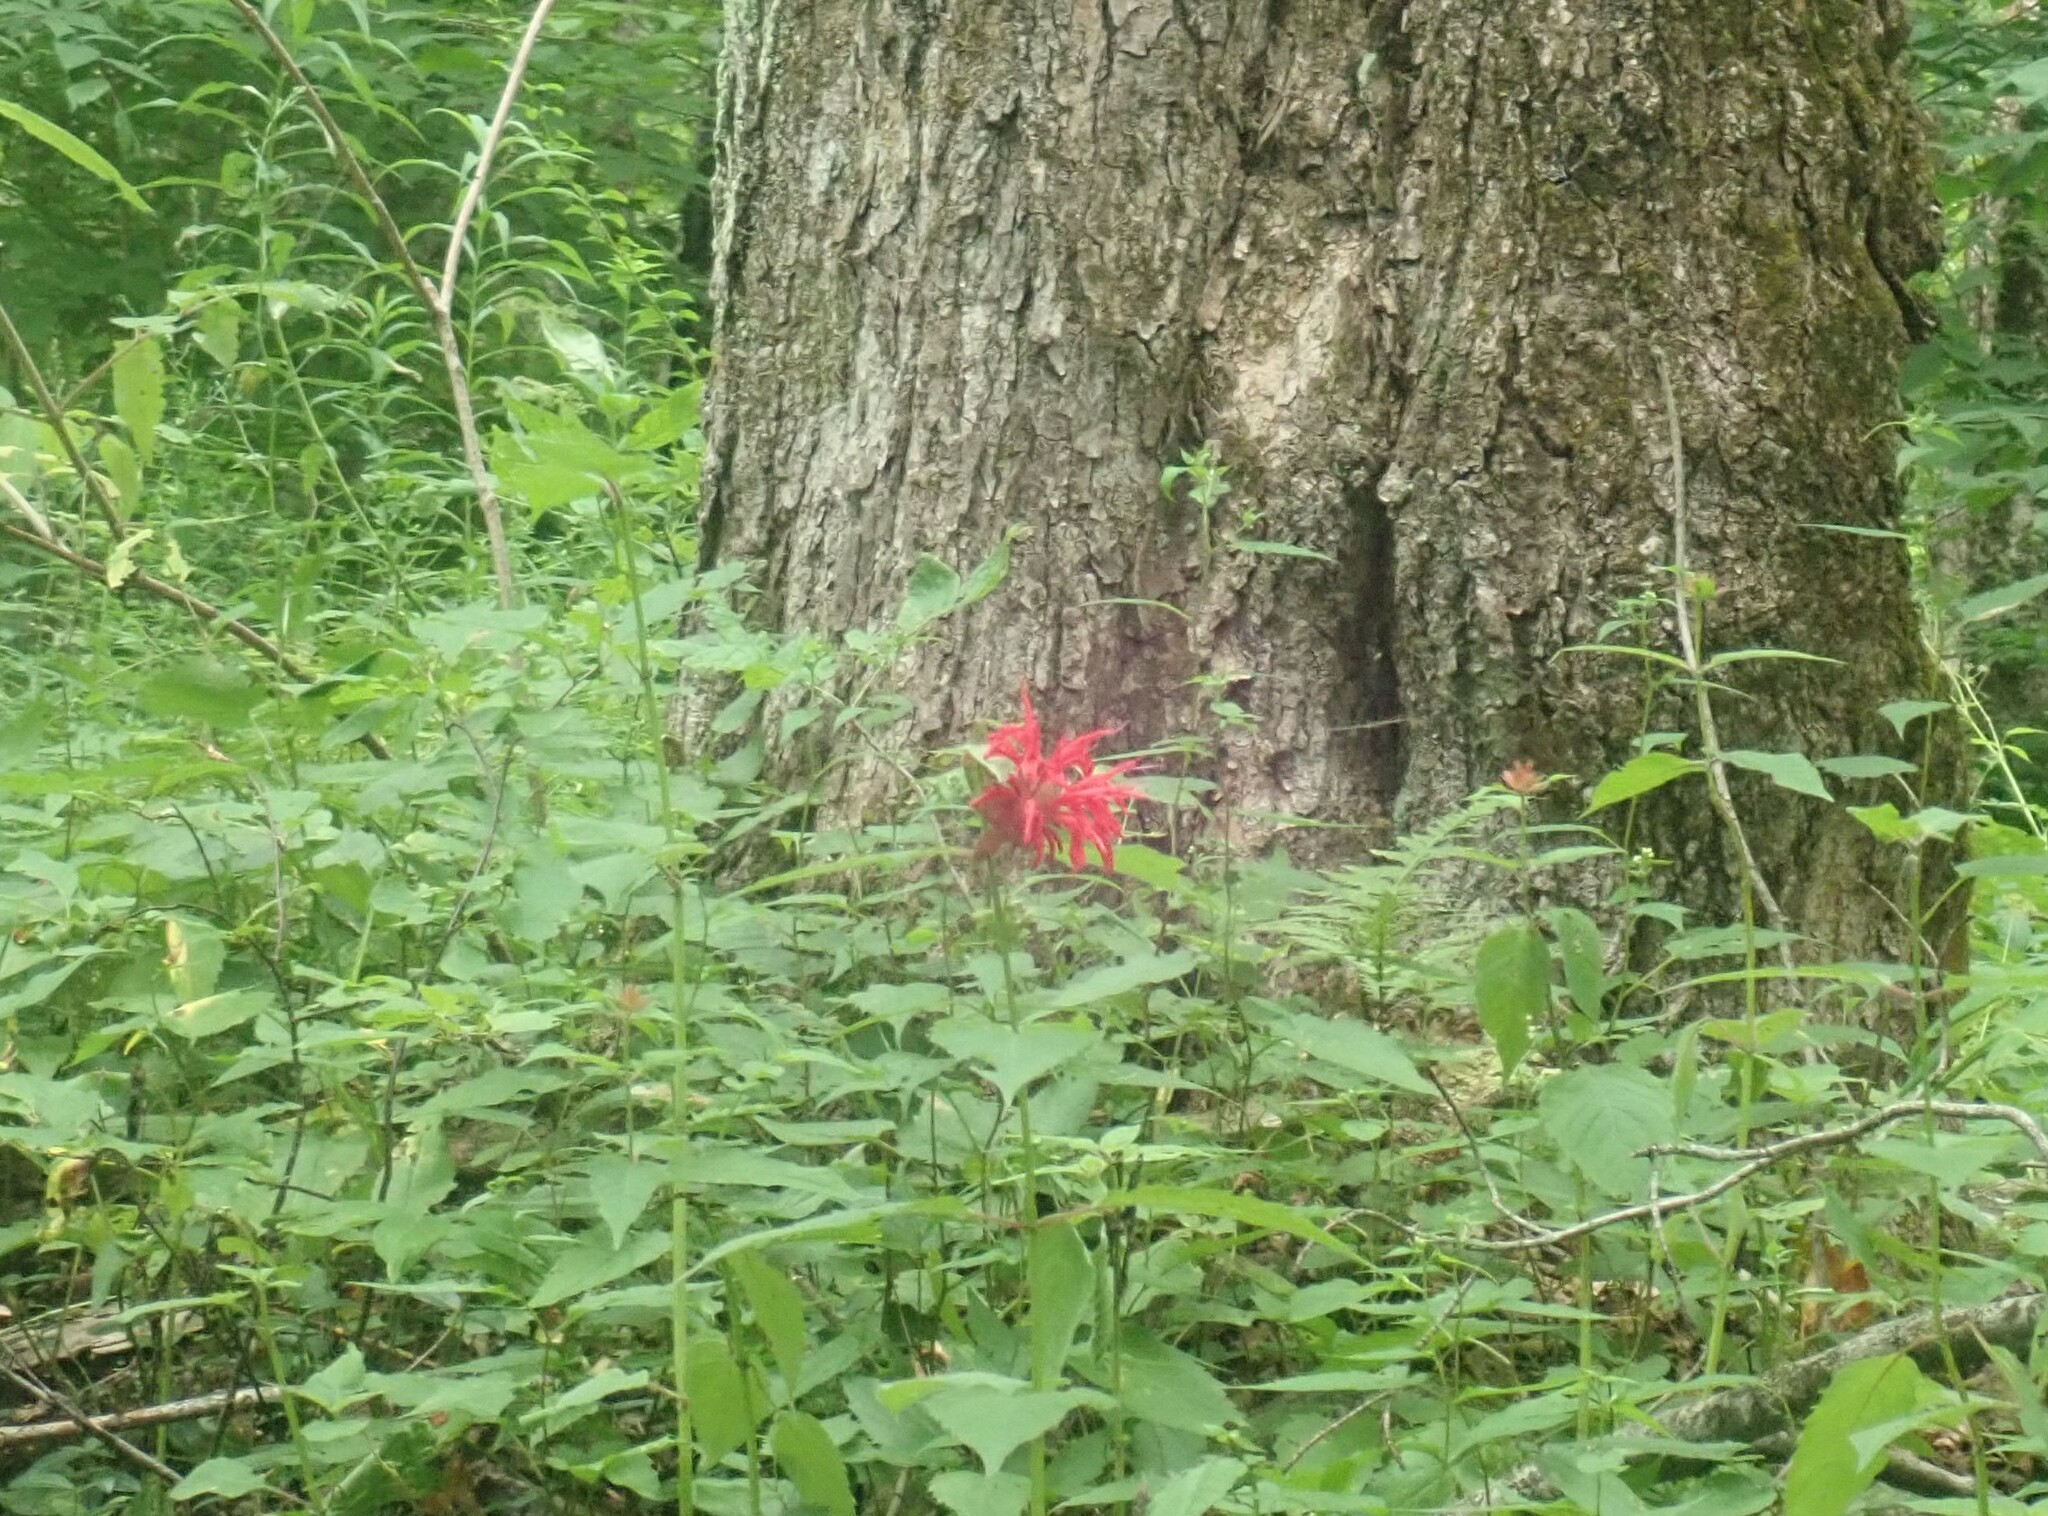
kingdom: Plantae
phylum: Tracheophyta
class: Magnoliopsida
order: Lamiales
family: Lamiaceae
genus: Monarda
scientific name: Monarda didyma
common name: Beebalm
